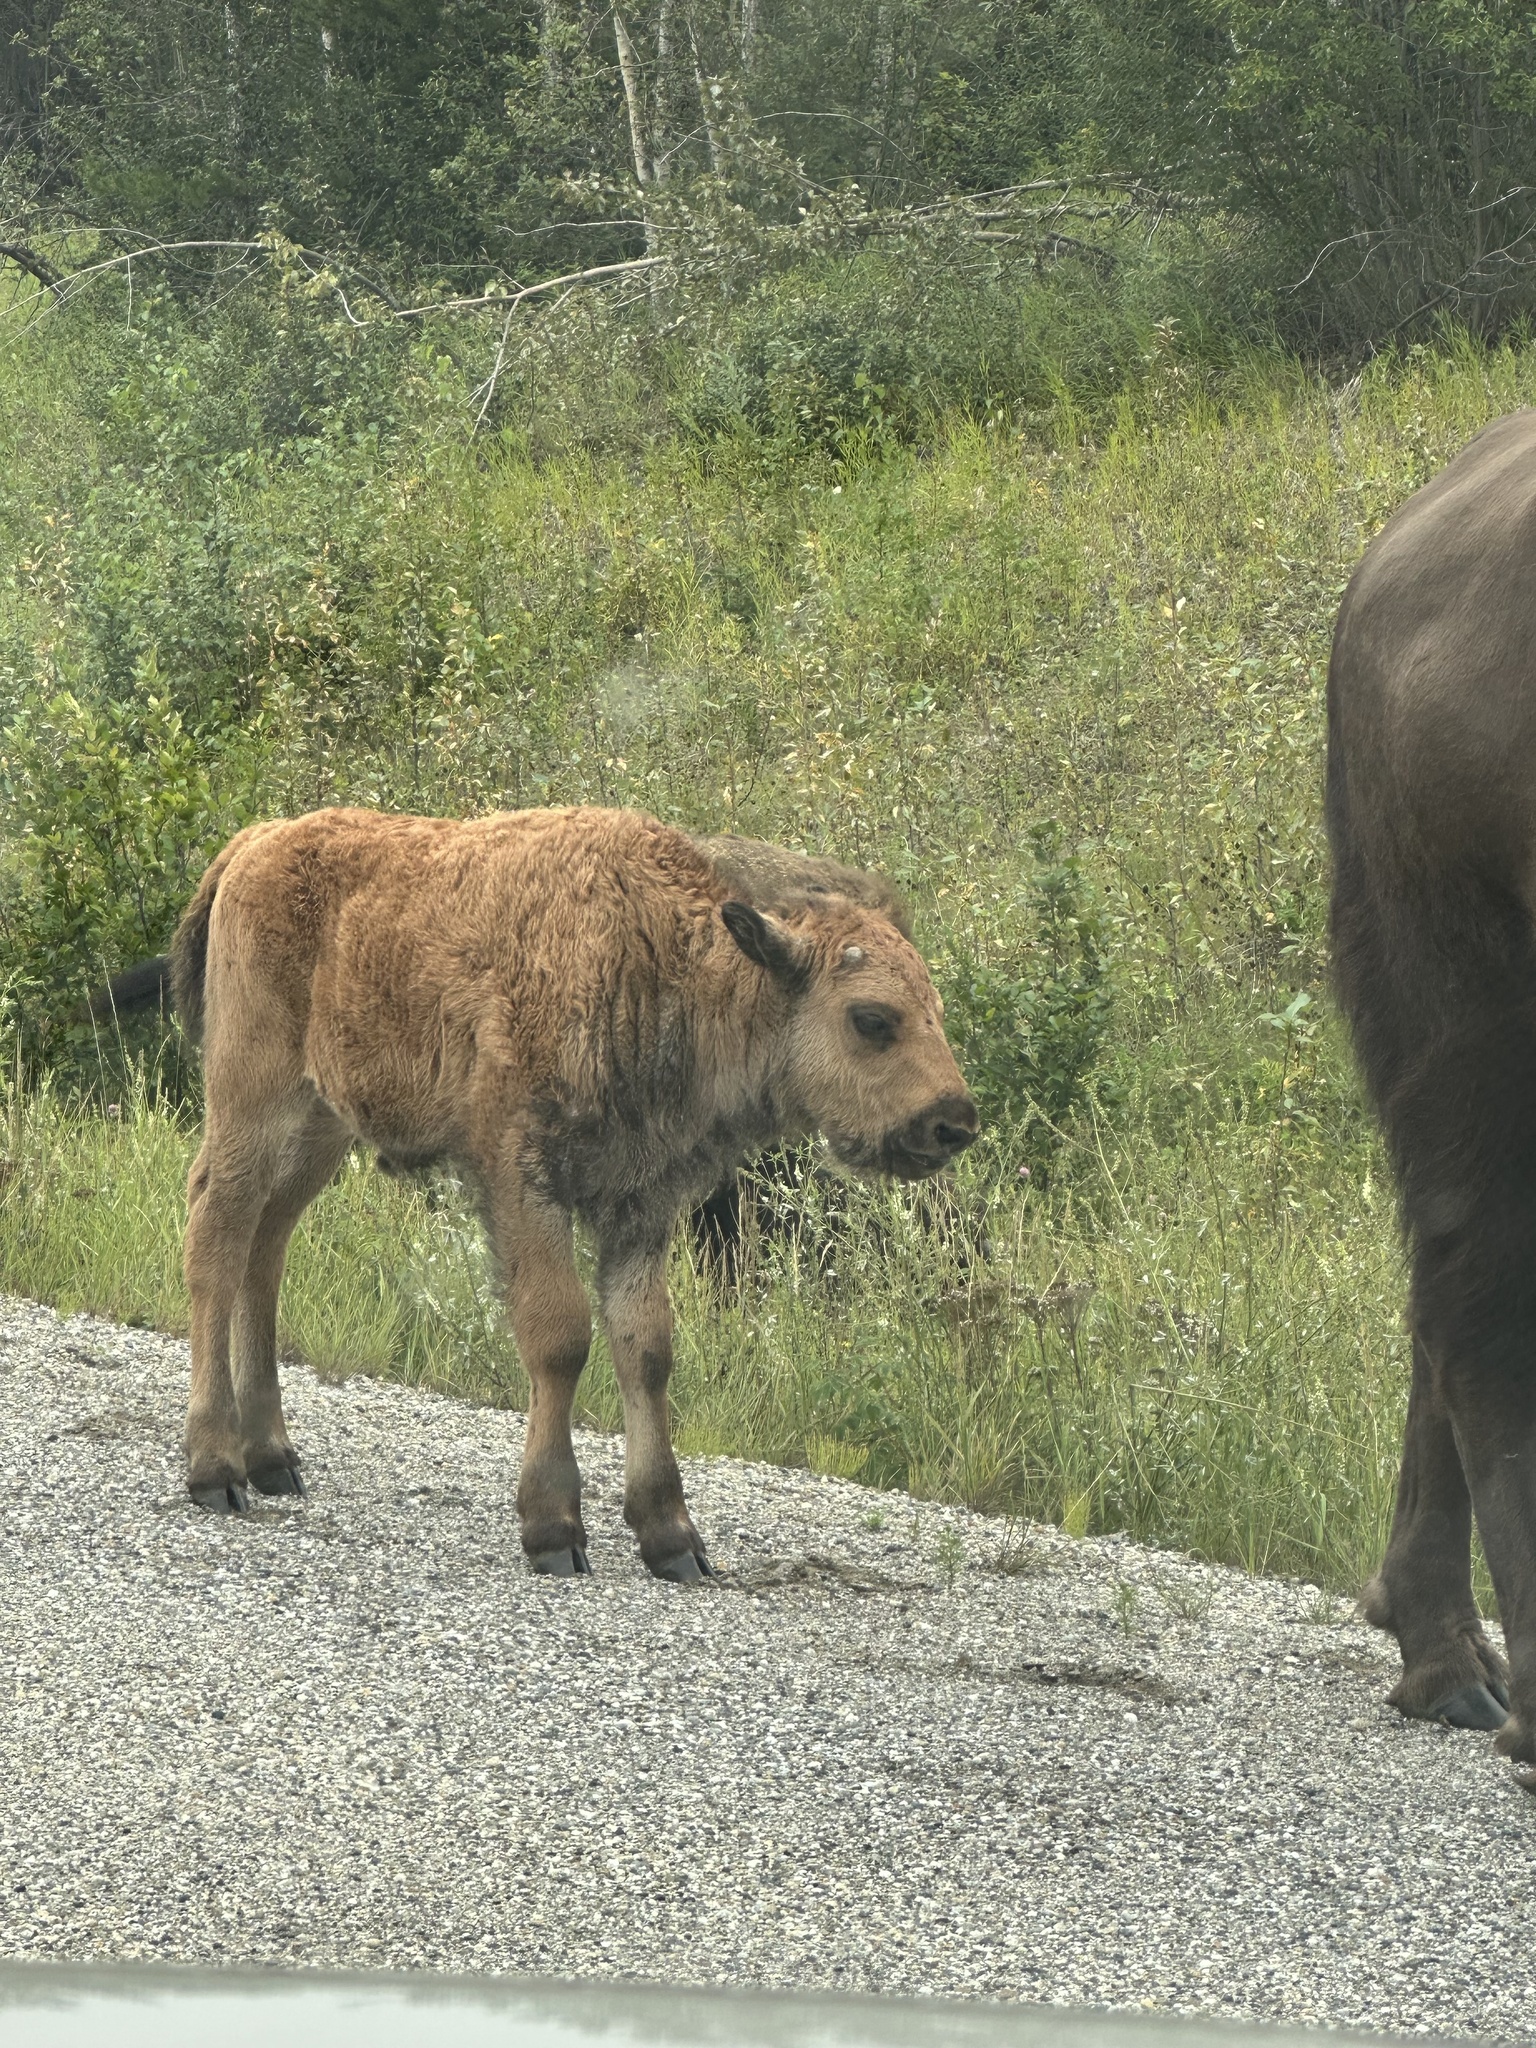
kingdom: Animalia
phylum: Chordata
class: Mammalia
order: Artiodactyla
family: Bovidae
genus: Bison
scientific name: Bison bison
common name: American bison
